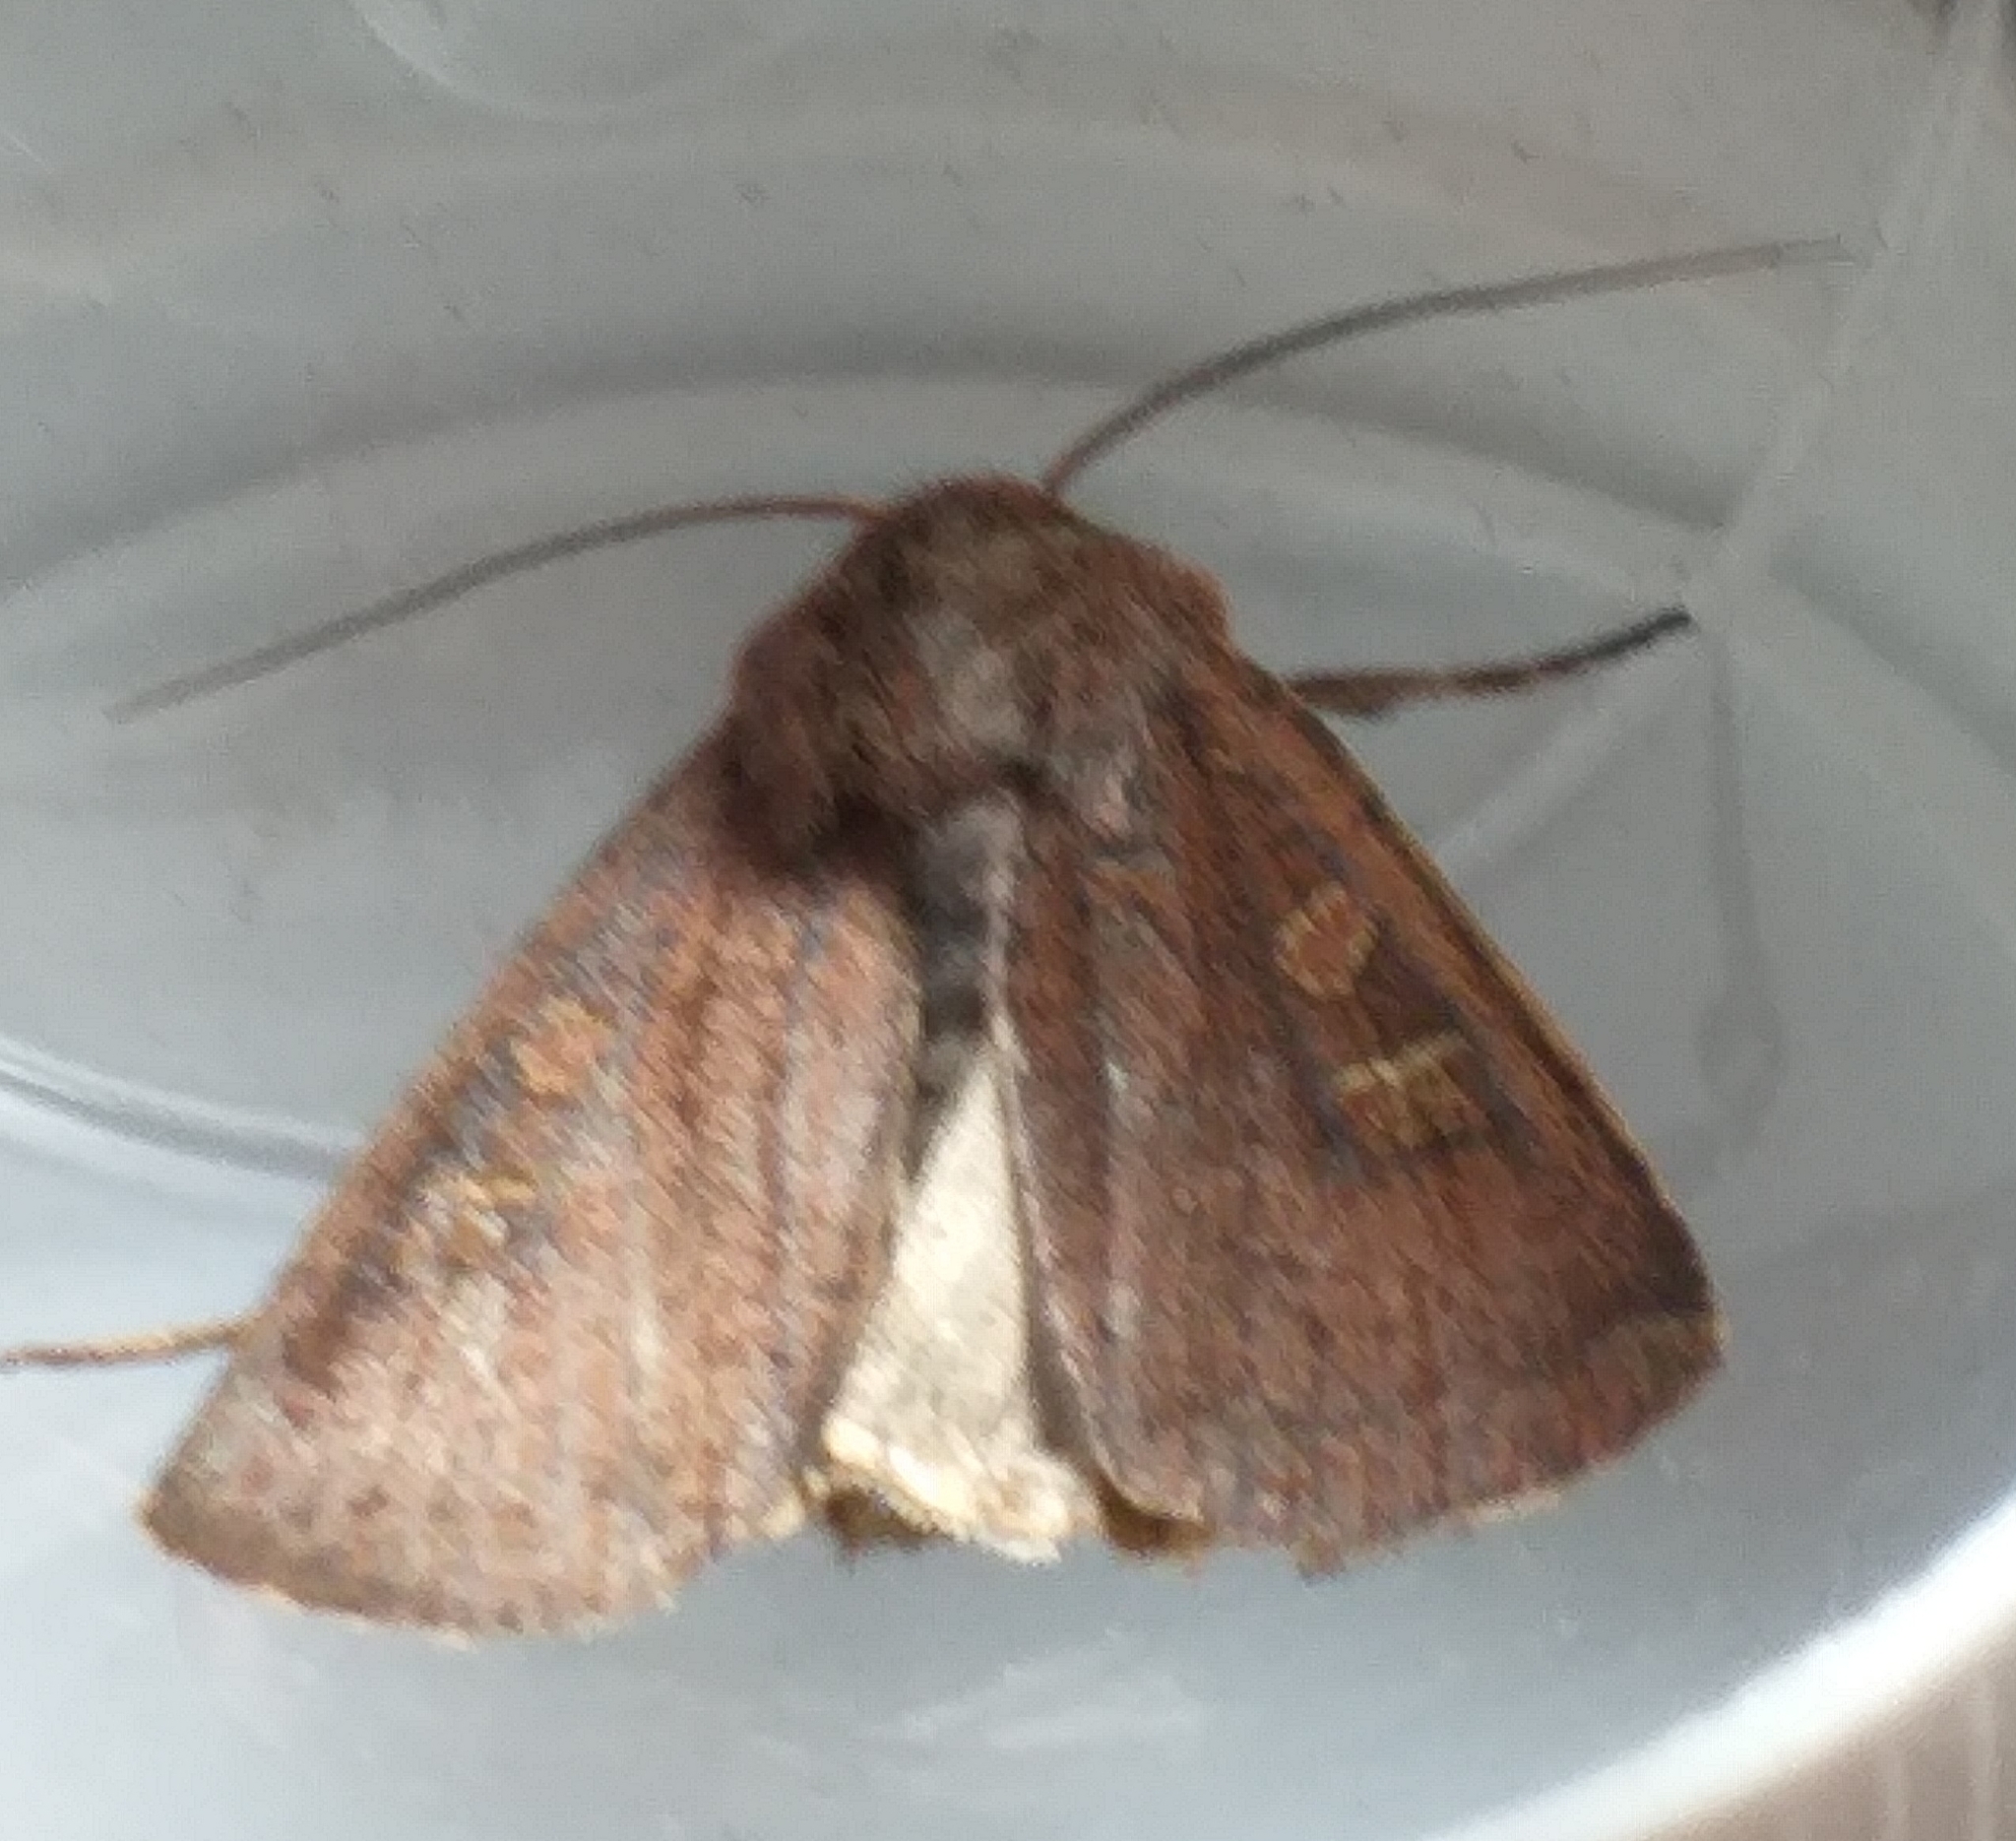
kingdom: Animalia
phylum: Arthropoda
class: Insecta
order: Lepidoptera
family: Noctuidae
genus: Xestia
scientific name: Xestia xanthographa
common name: Square-spot rustic
